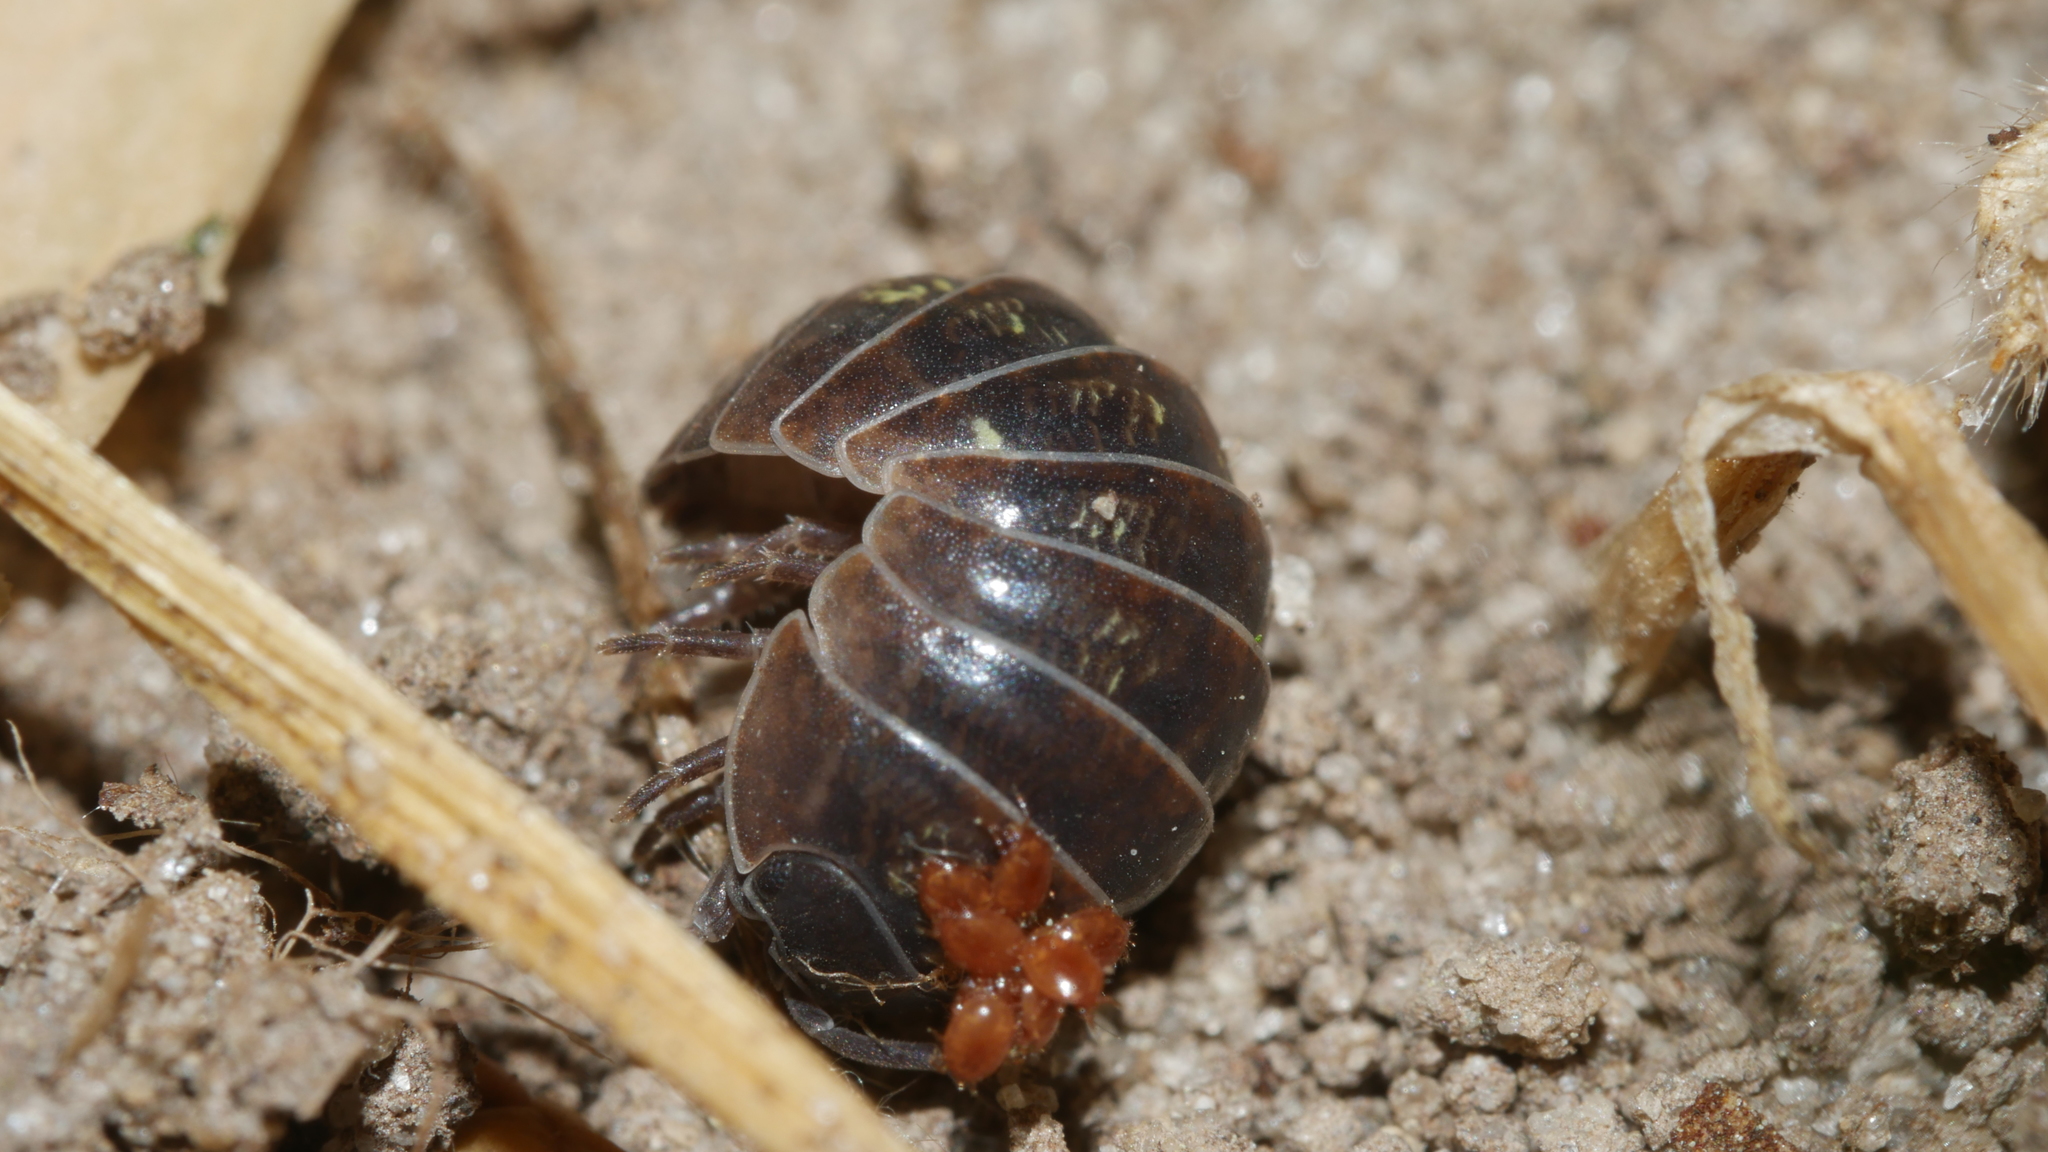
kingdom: Animalia
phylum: Arthropoda
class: Malacostraca
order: Isopoda
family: Armadillidiidae
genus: Armadillidium
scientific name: Armadillidium vulgare
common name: Common pill woodlouse
